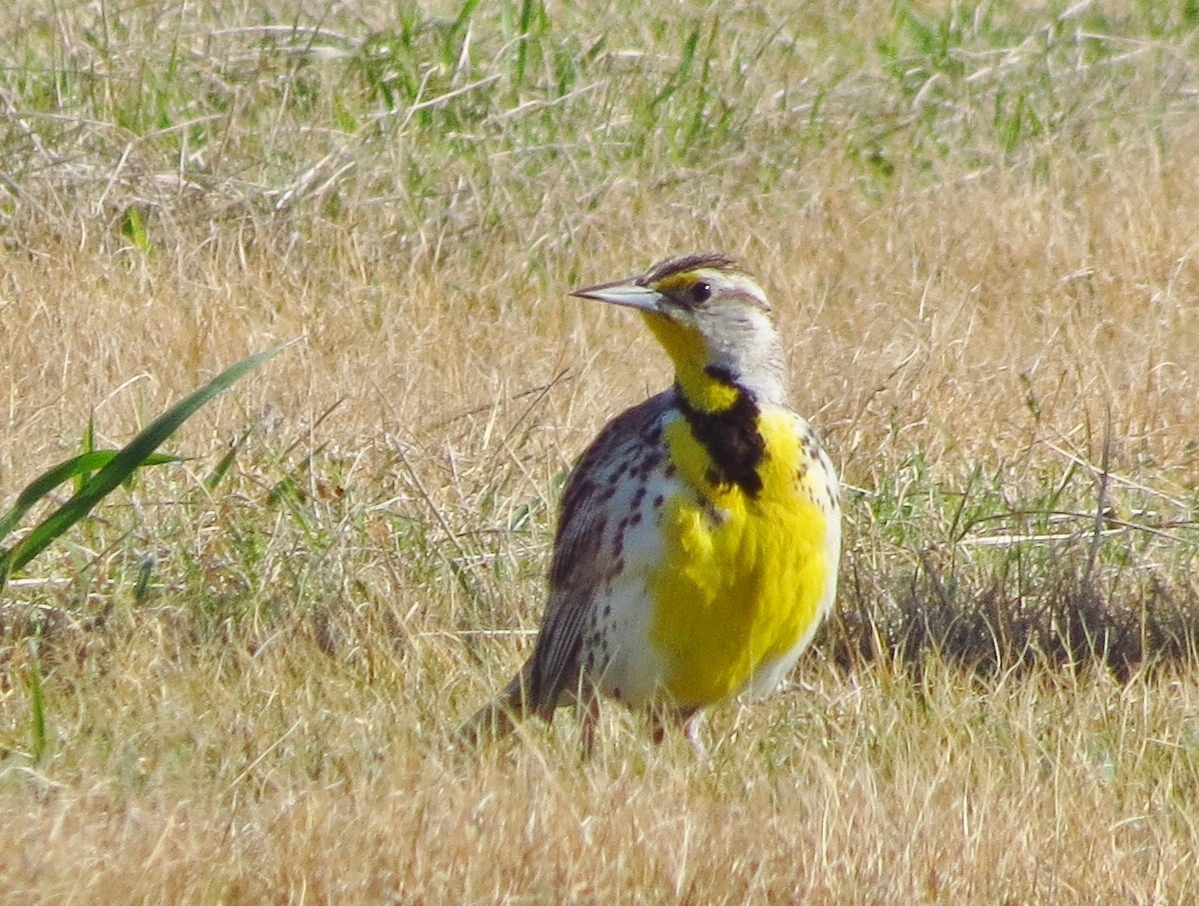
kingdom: Animalia
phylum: Chordata
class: Aves
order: Passeriformes
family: Icteridae
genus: Sturnella
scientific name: Sturnella neglecta
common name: Western meadowlark
